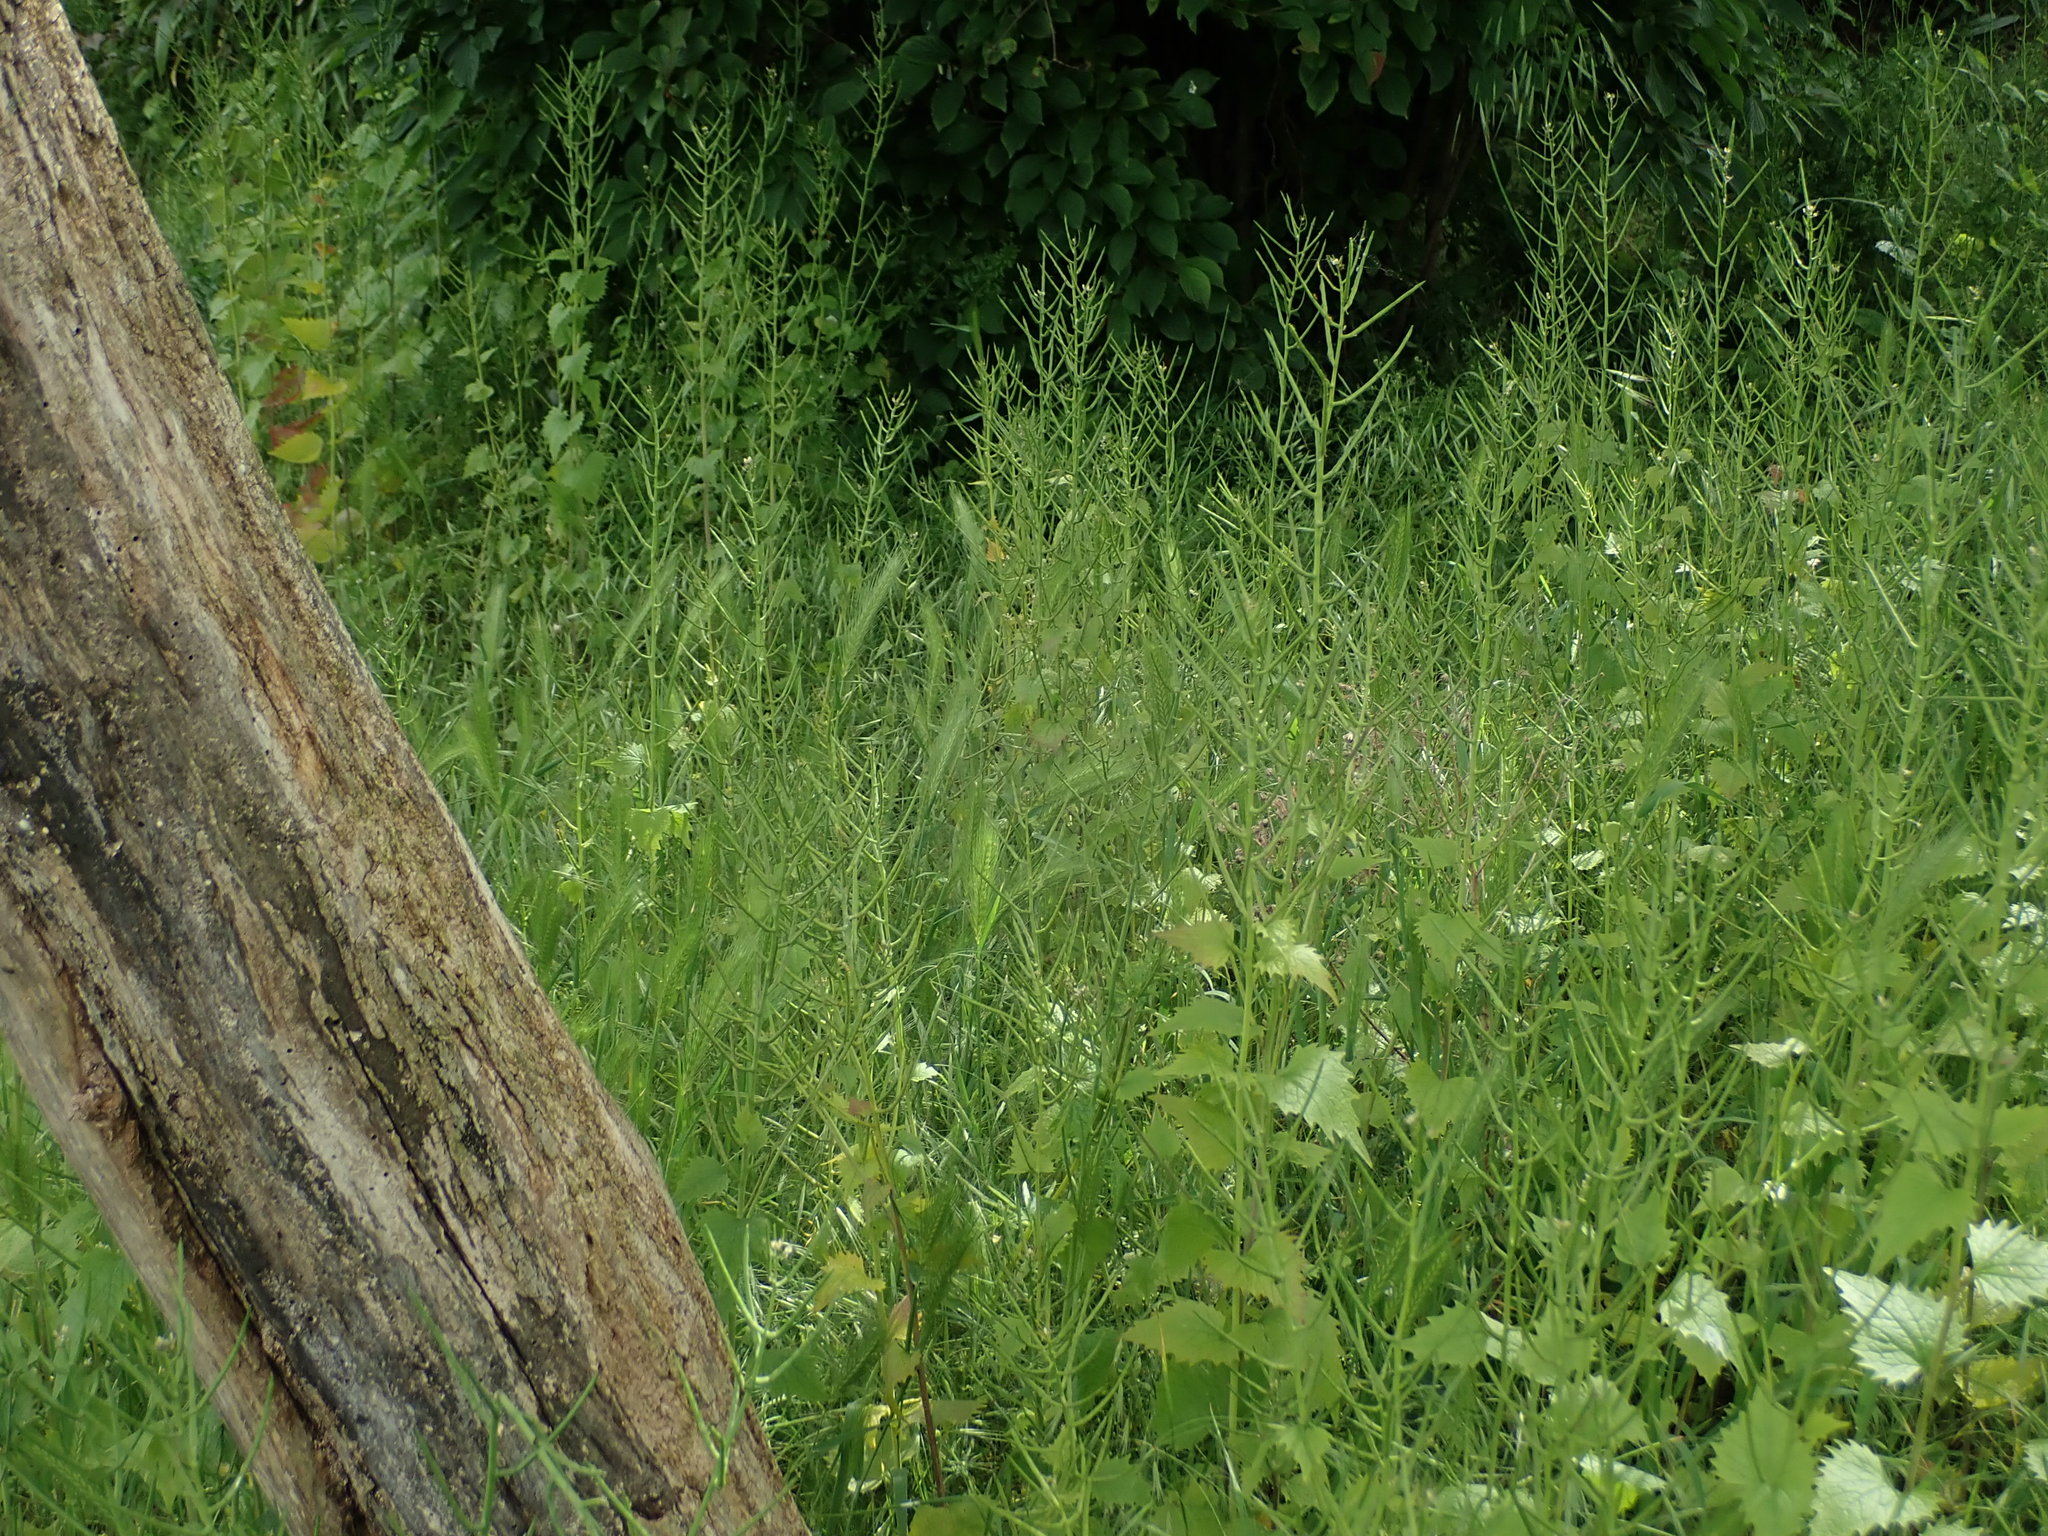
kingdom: Plantae
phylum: Tracheophyta
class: Magnoliopsida
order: Brassicales
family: Brassicaceae
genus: Alliaria
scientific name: Alliaria petiolata
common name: Garlic mustard
